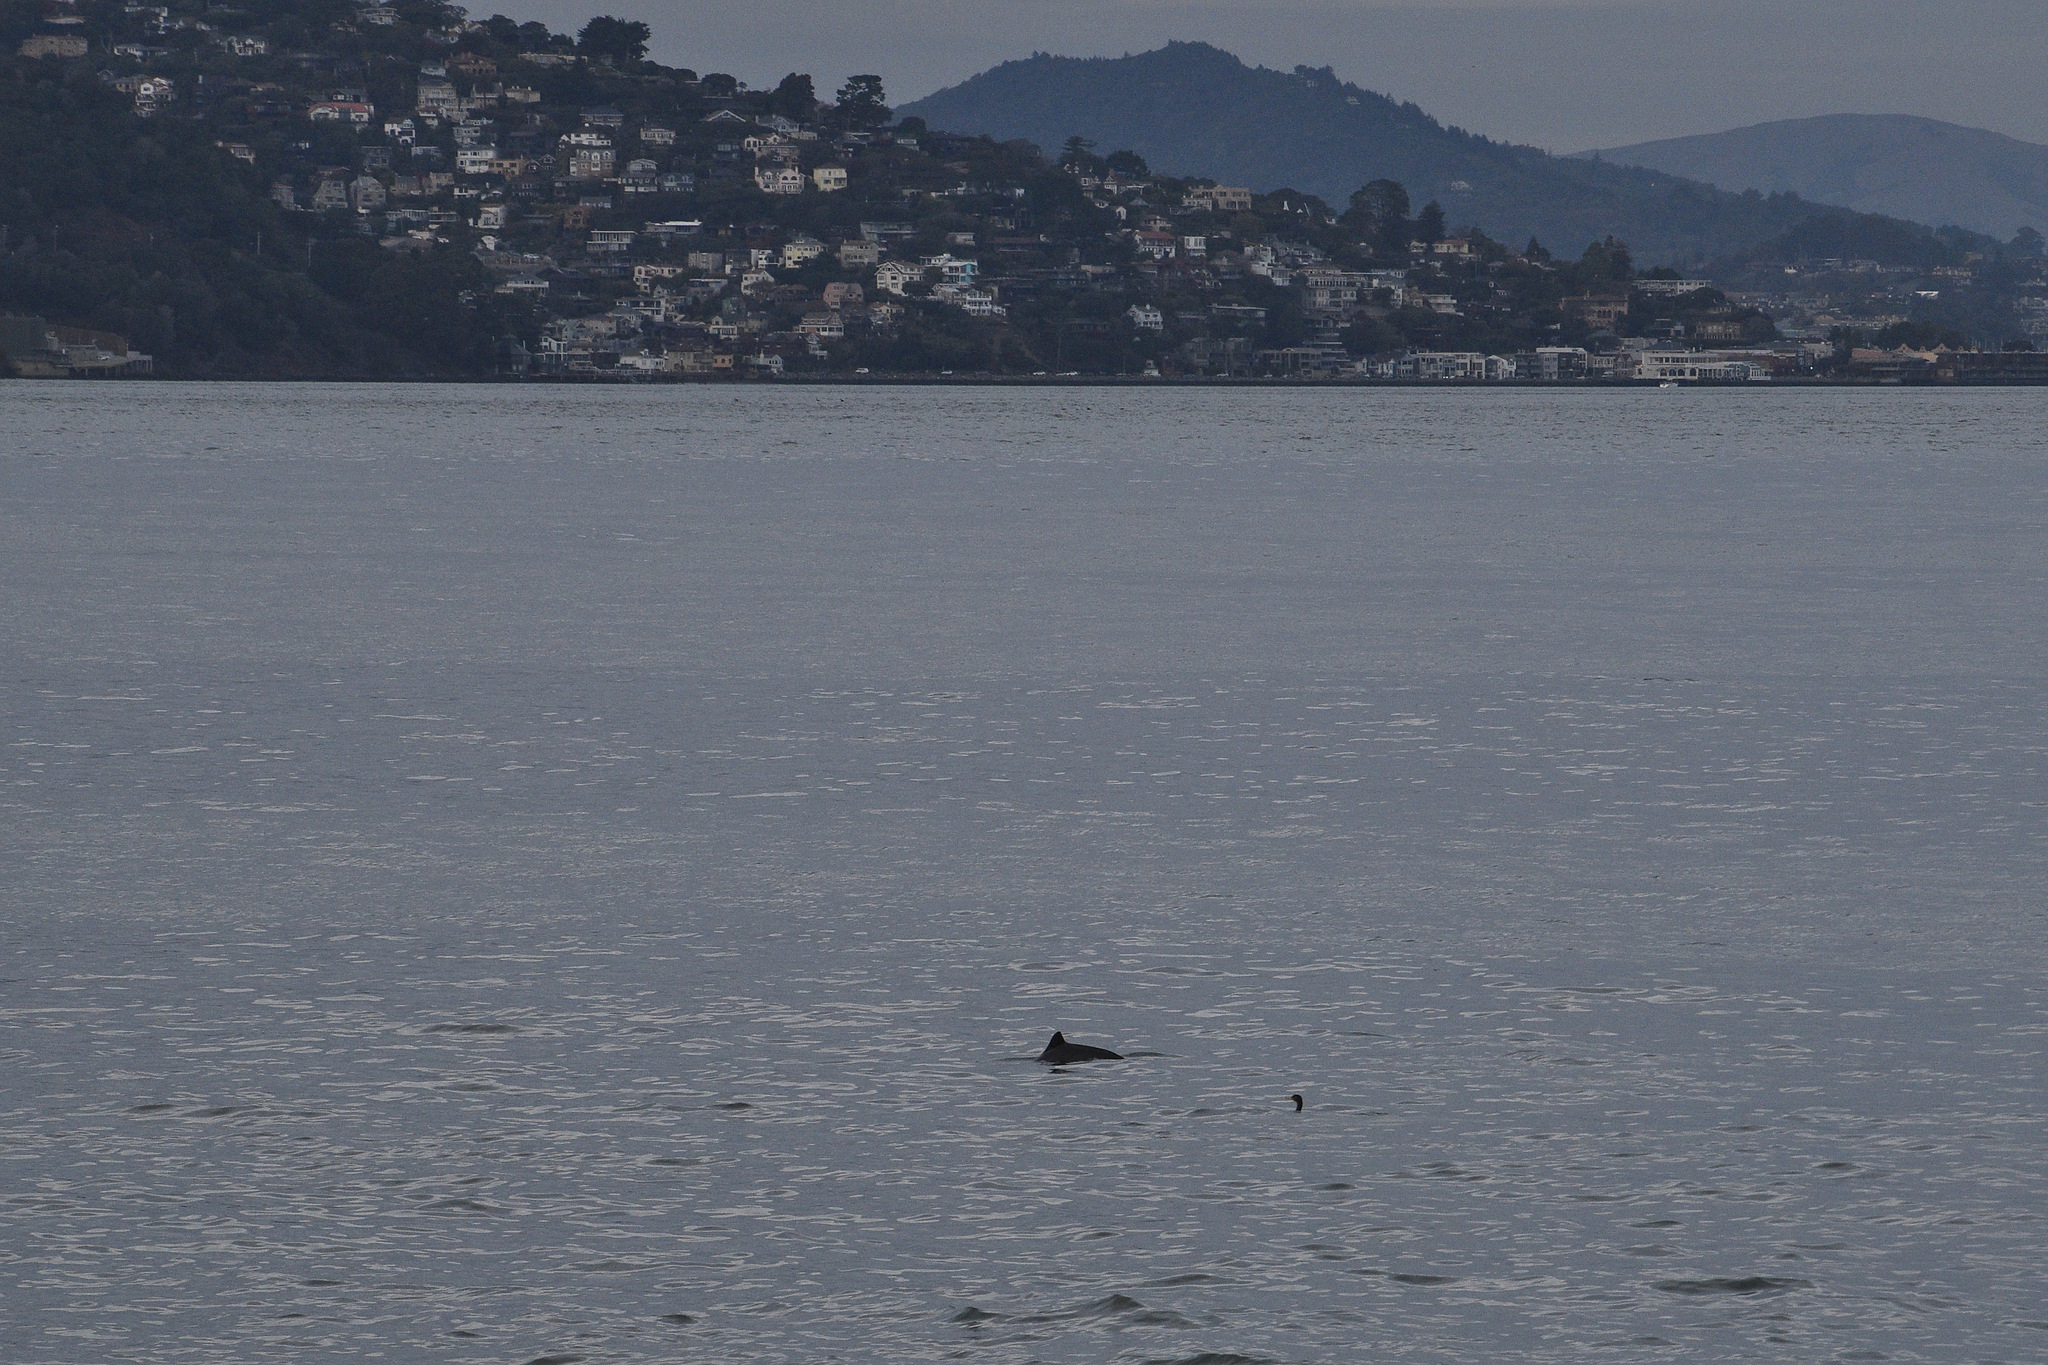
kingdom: Animalia
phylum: Chordata
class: Mammalia
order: Cetacea
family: Phocoenidae
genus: Phocoena
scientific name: Phocoena phocoena
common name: Harbor porpoise
